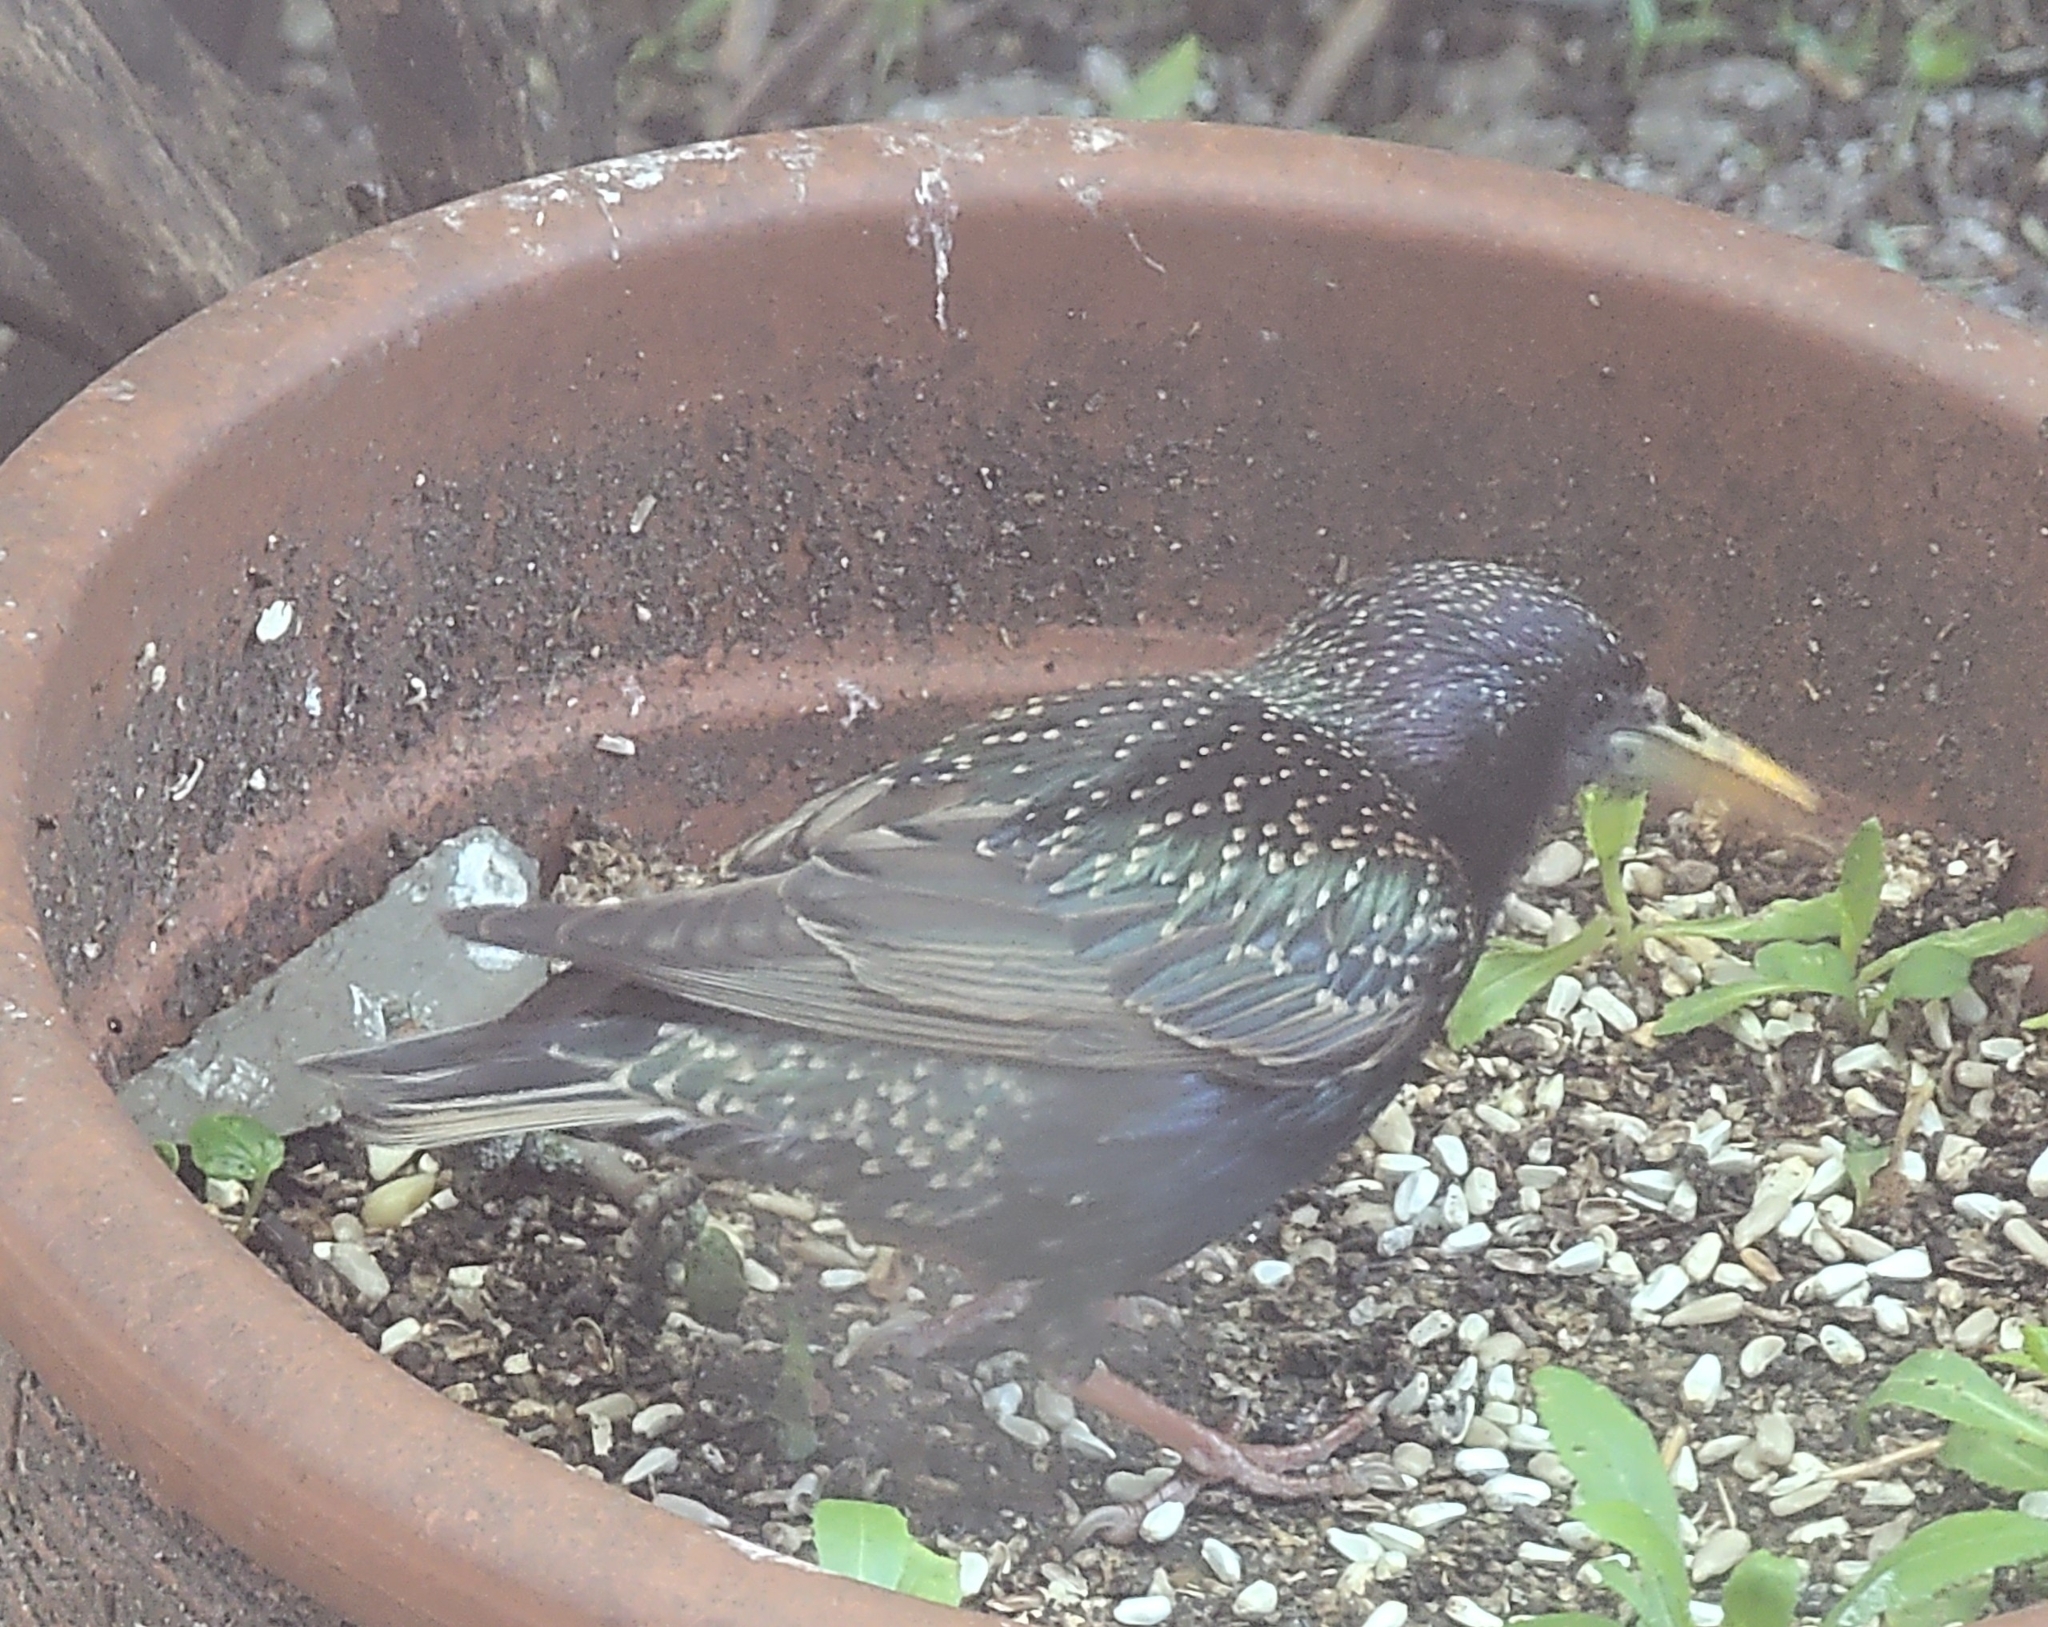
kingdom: Animalia
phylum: Chordata
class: Aves
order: Passeriformes
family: Sturnidae
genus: Sturnus
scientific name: Sturnus vulgaris
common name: Common starling
